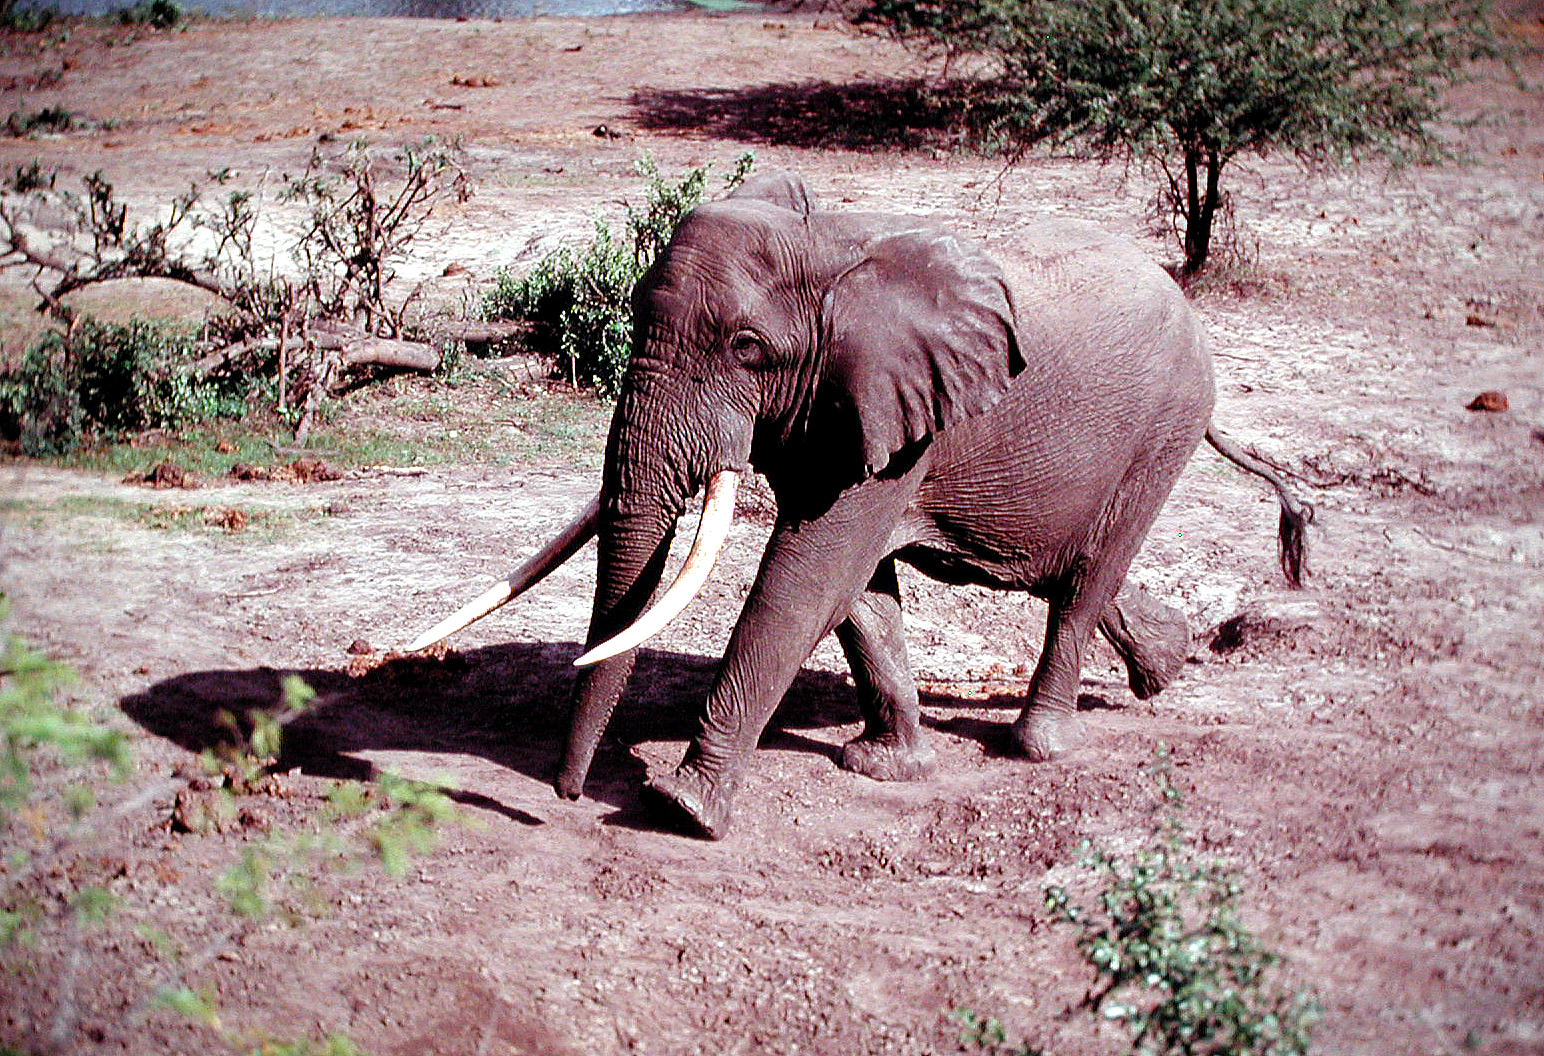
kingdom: Animalia
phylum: Chordata
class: Mammalia
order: Proboscidea
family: Elephantidae
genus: Loxodonta
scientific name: Loxodonta africana
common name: African elephant
